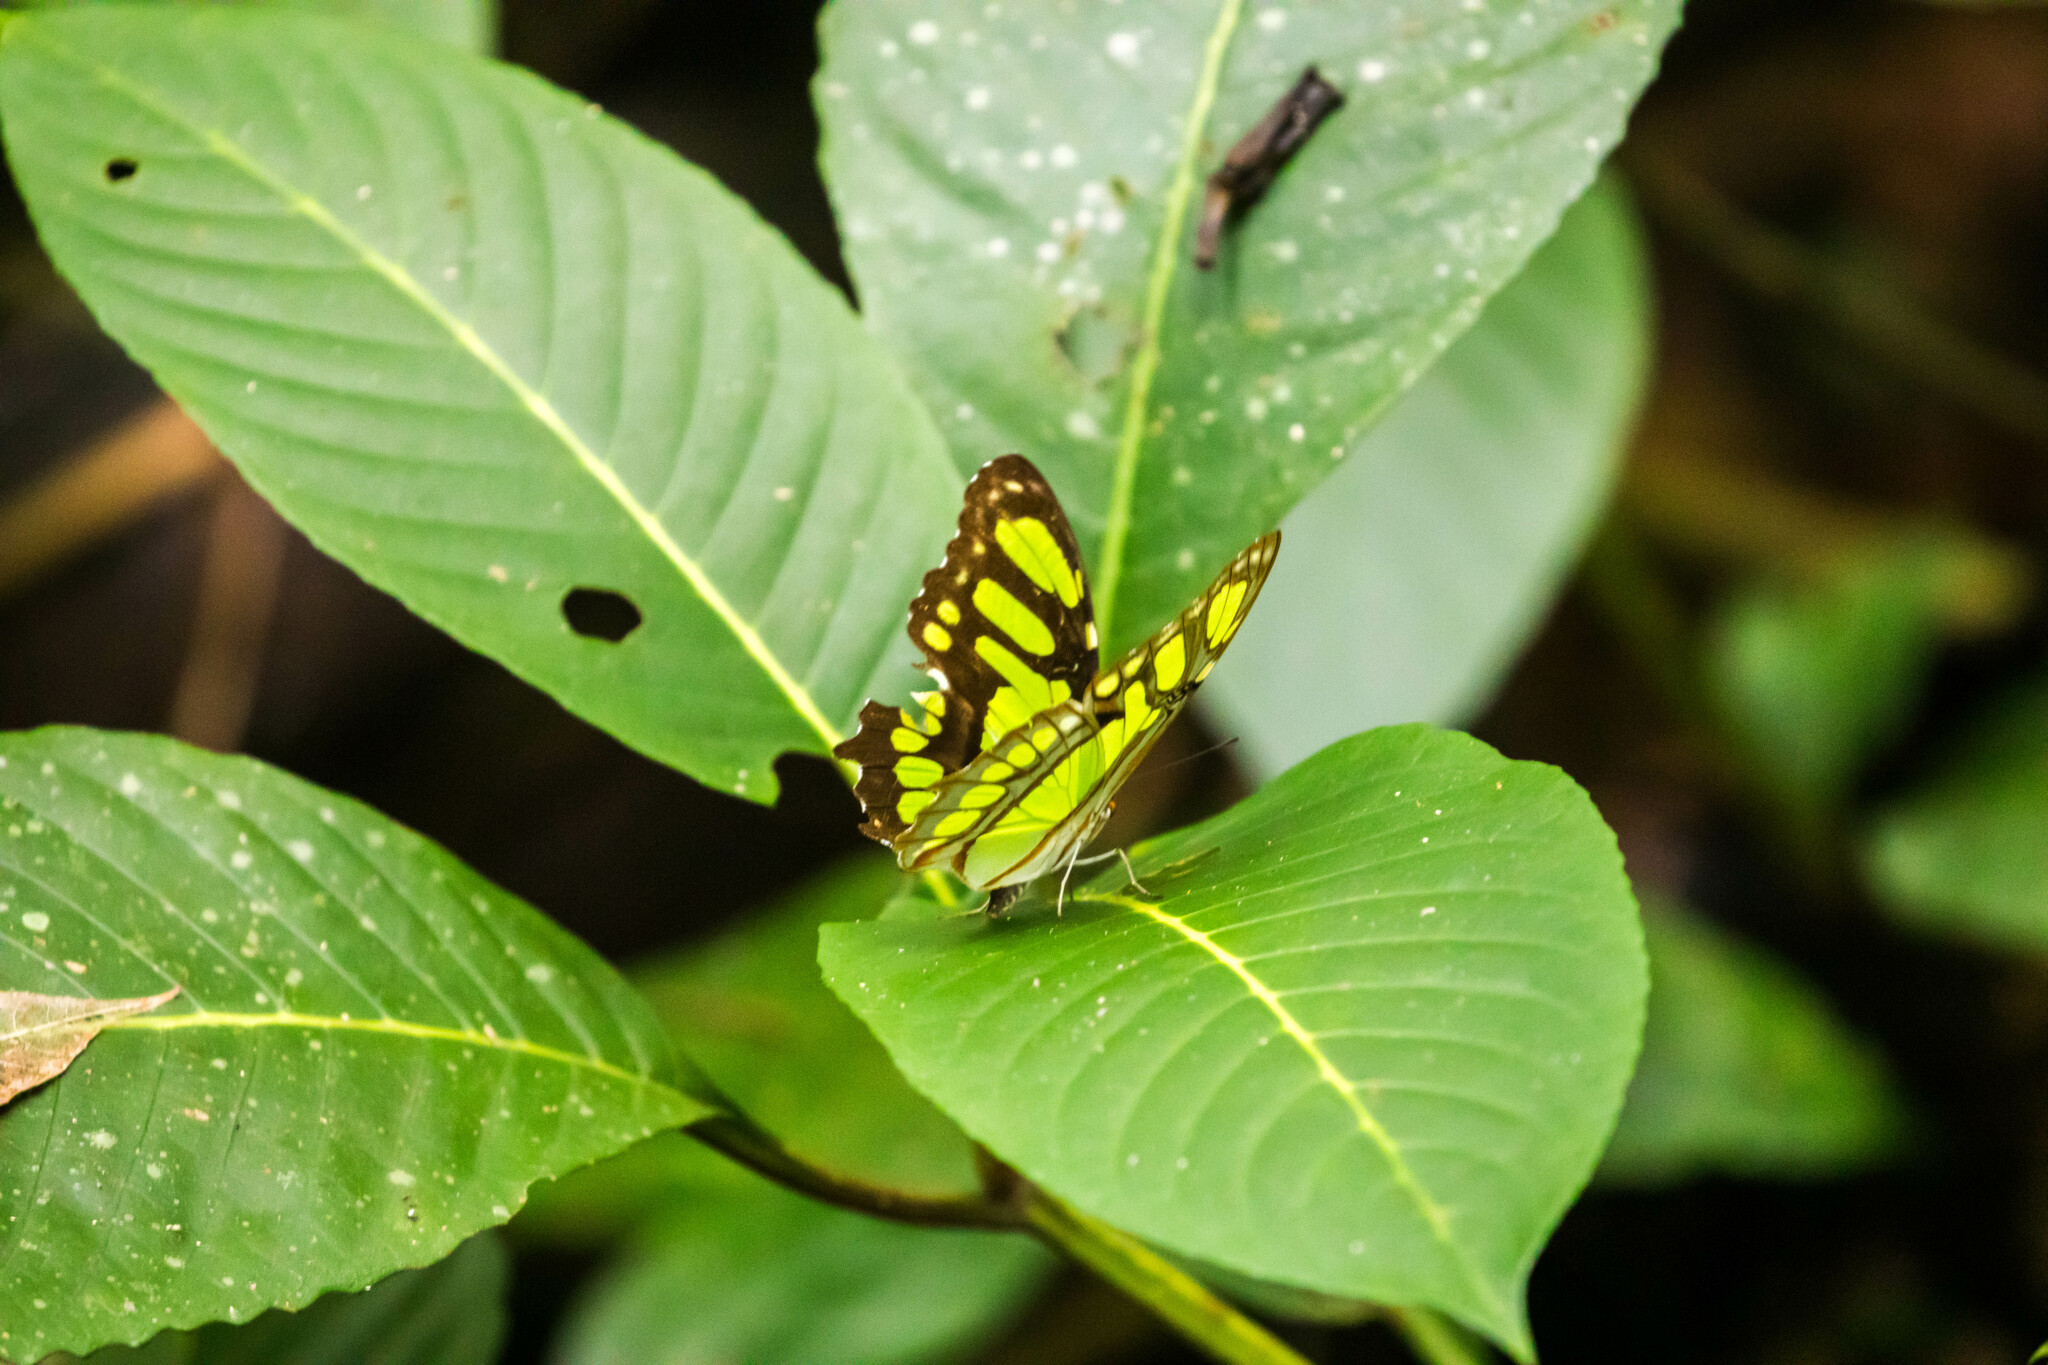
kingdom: Animalia
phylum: Arthropoda
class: Insecta
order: Lepidoptera
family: Nymphalidae
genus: Siproeta
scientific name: Siproeta stelenes
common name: Malachite
